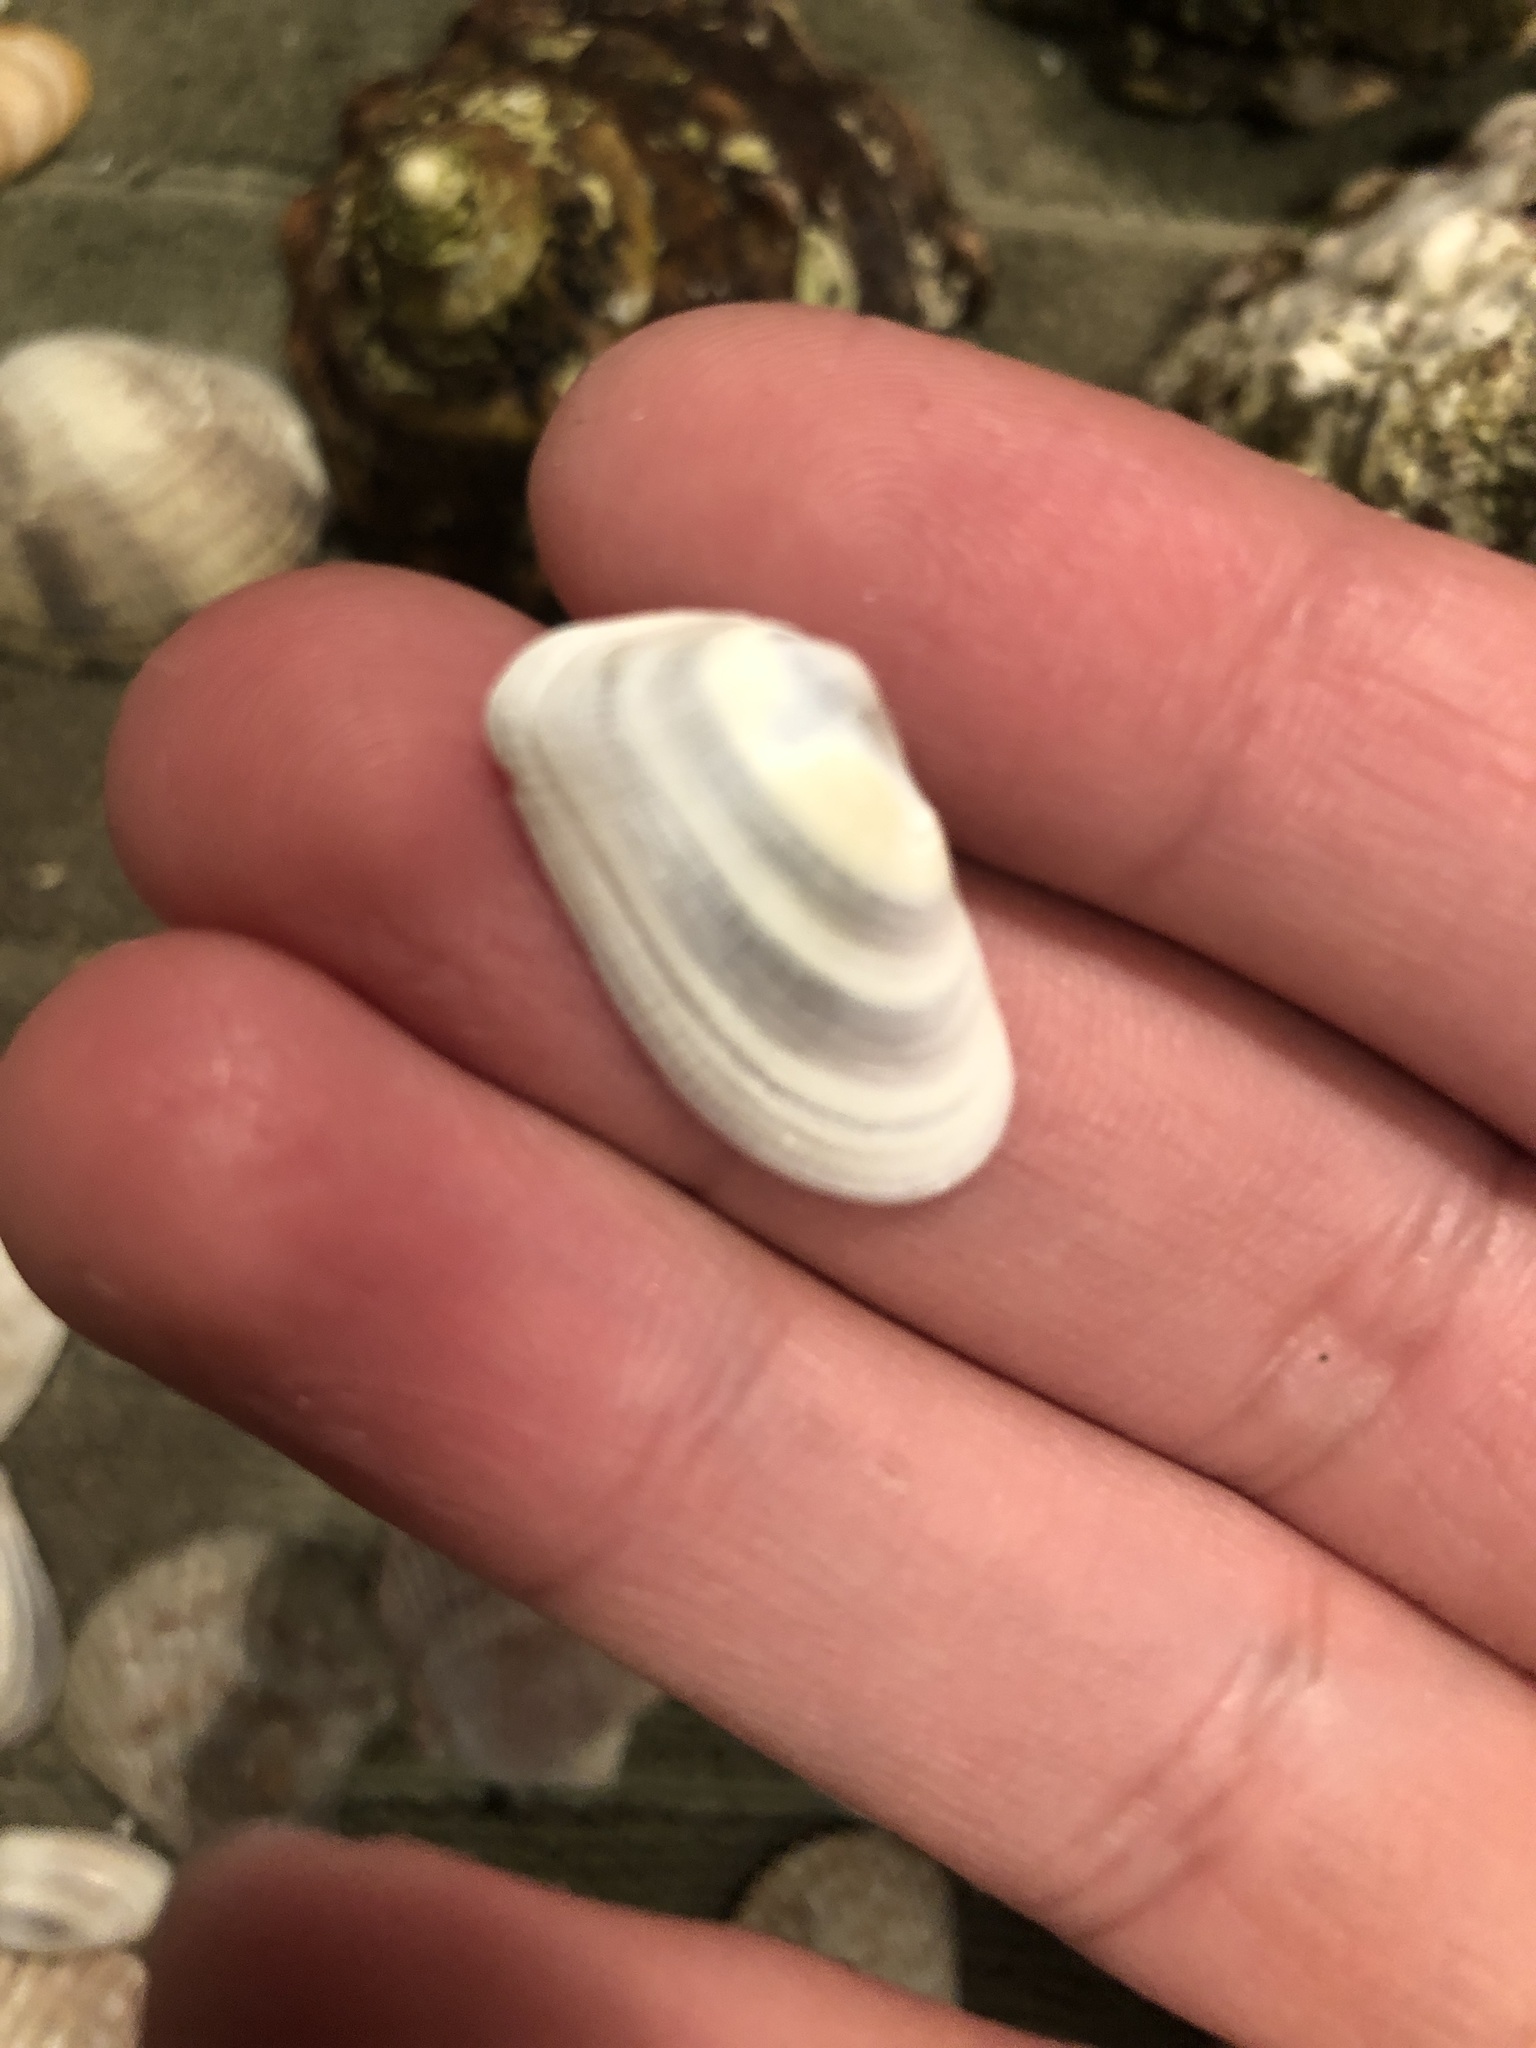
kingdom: Animalia
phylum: Mollusca
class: Bivalvia
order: Cardiida
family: Donacidae
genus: Donax
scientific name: Donax gouldii
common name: Gould beanclam
